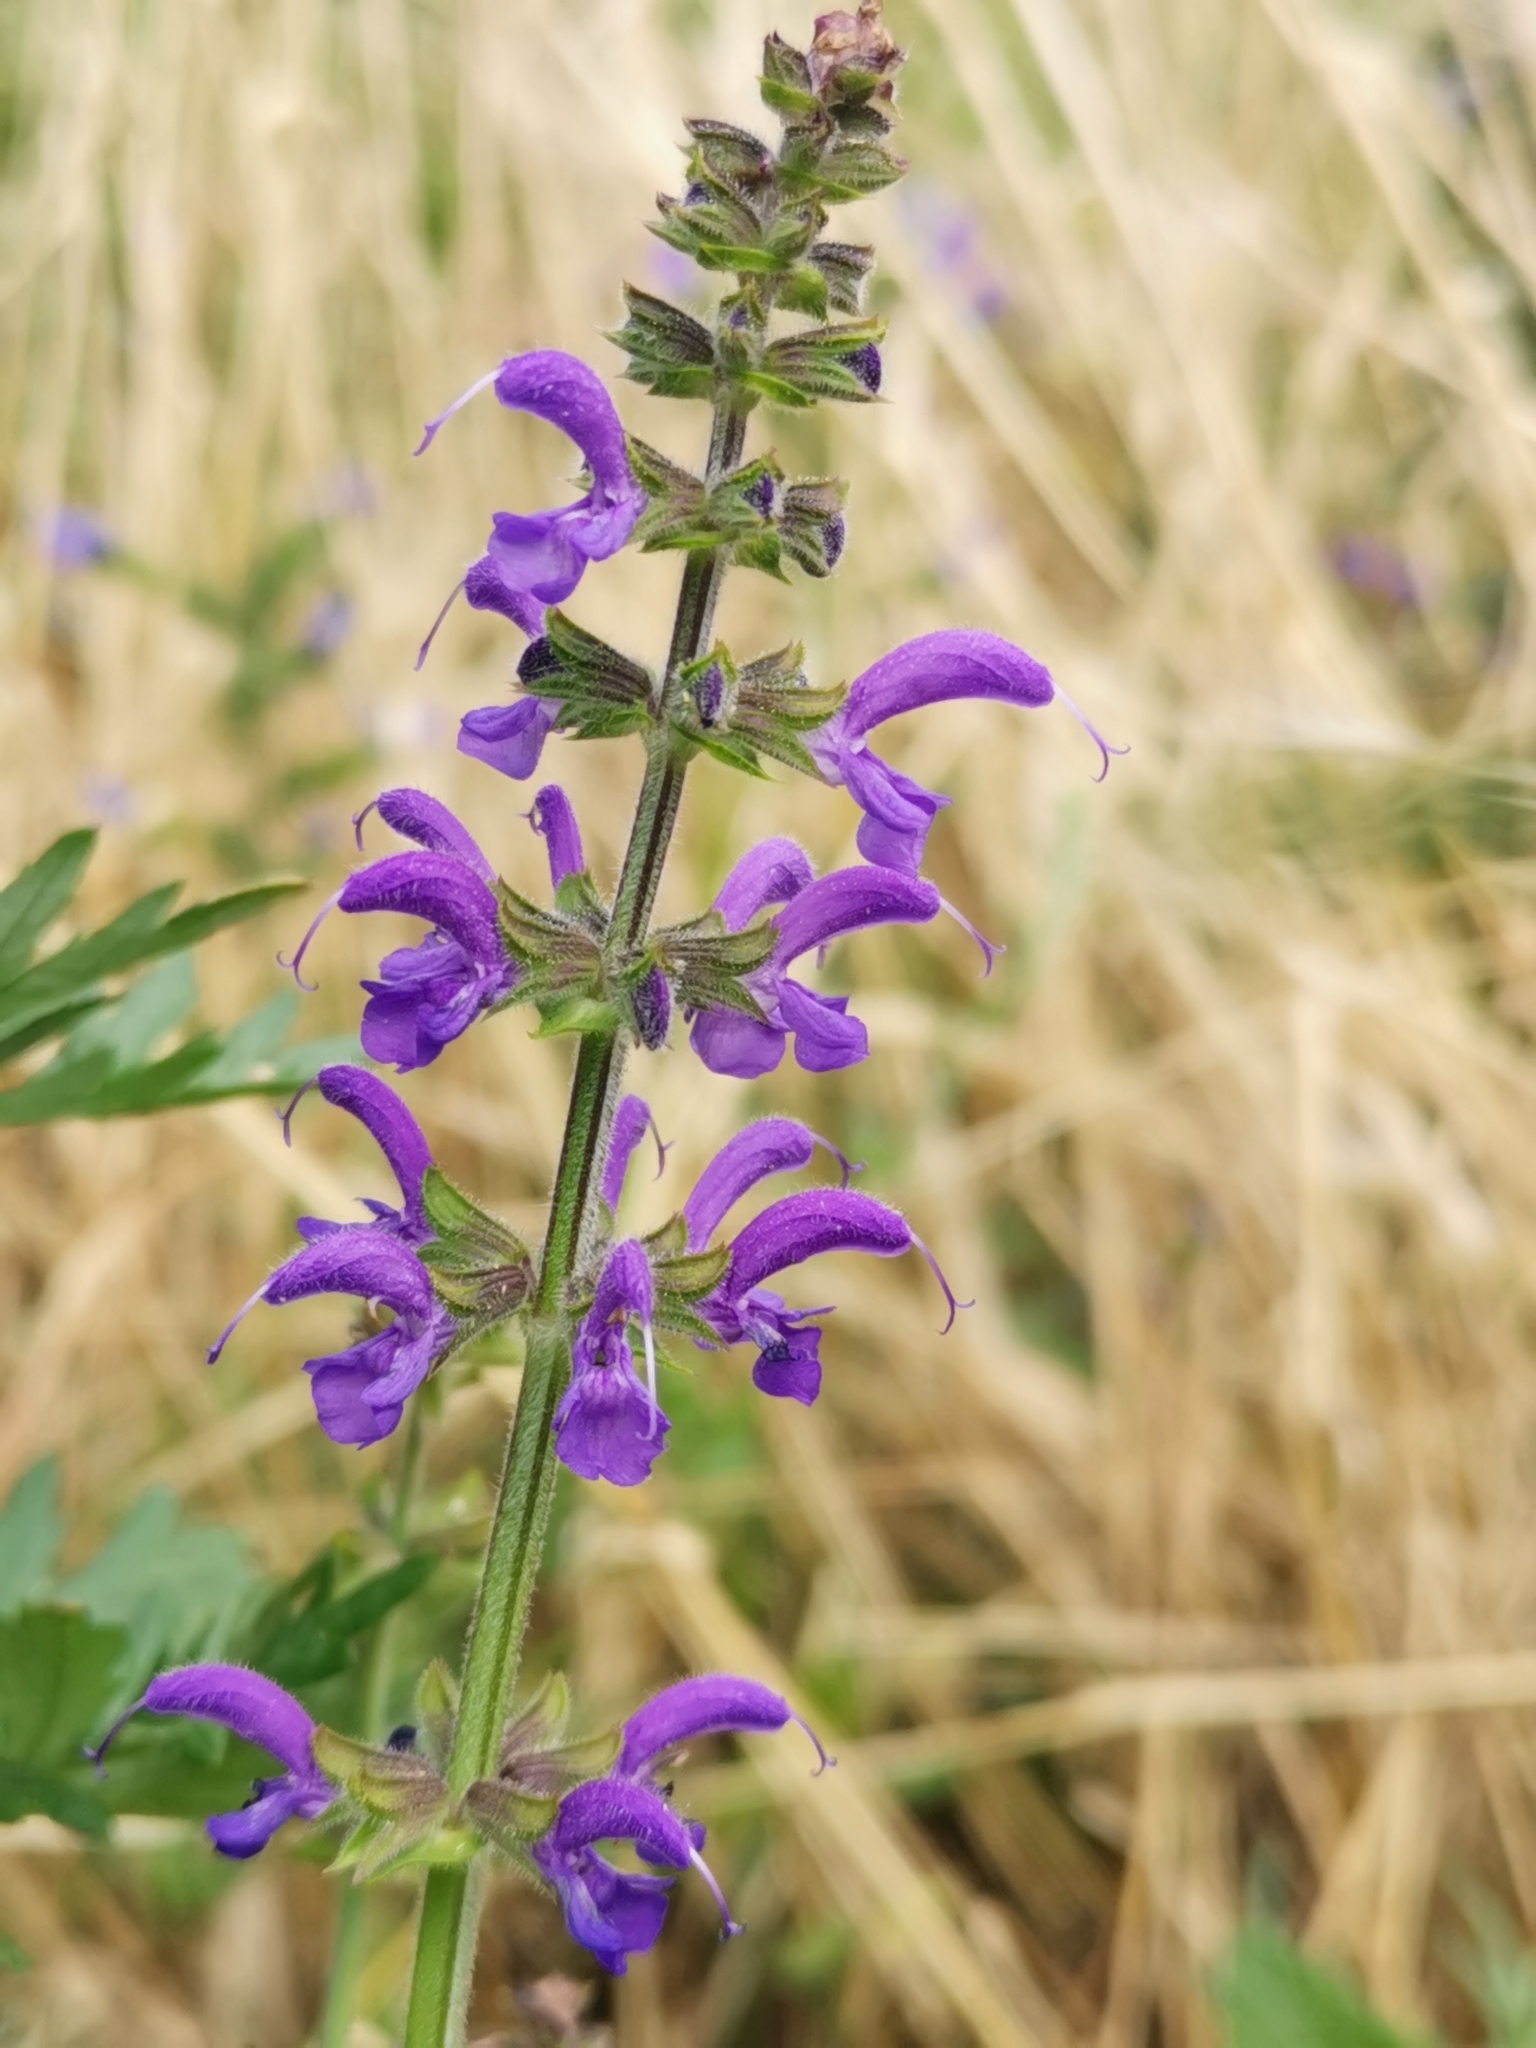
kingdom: Plantae
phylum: Tracheophyta
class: Magnoliopsida
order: Lamiales
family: Lamiaceae
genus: Salvia
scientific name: Salvia pratensis
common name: Meadow sage
